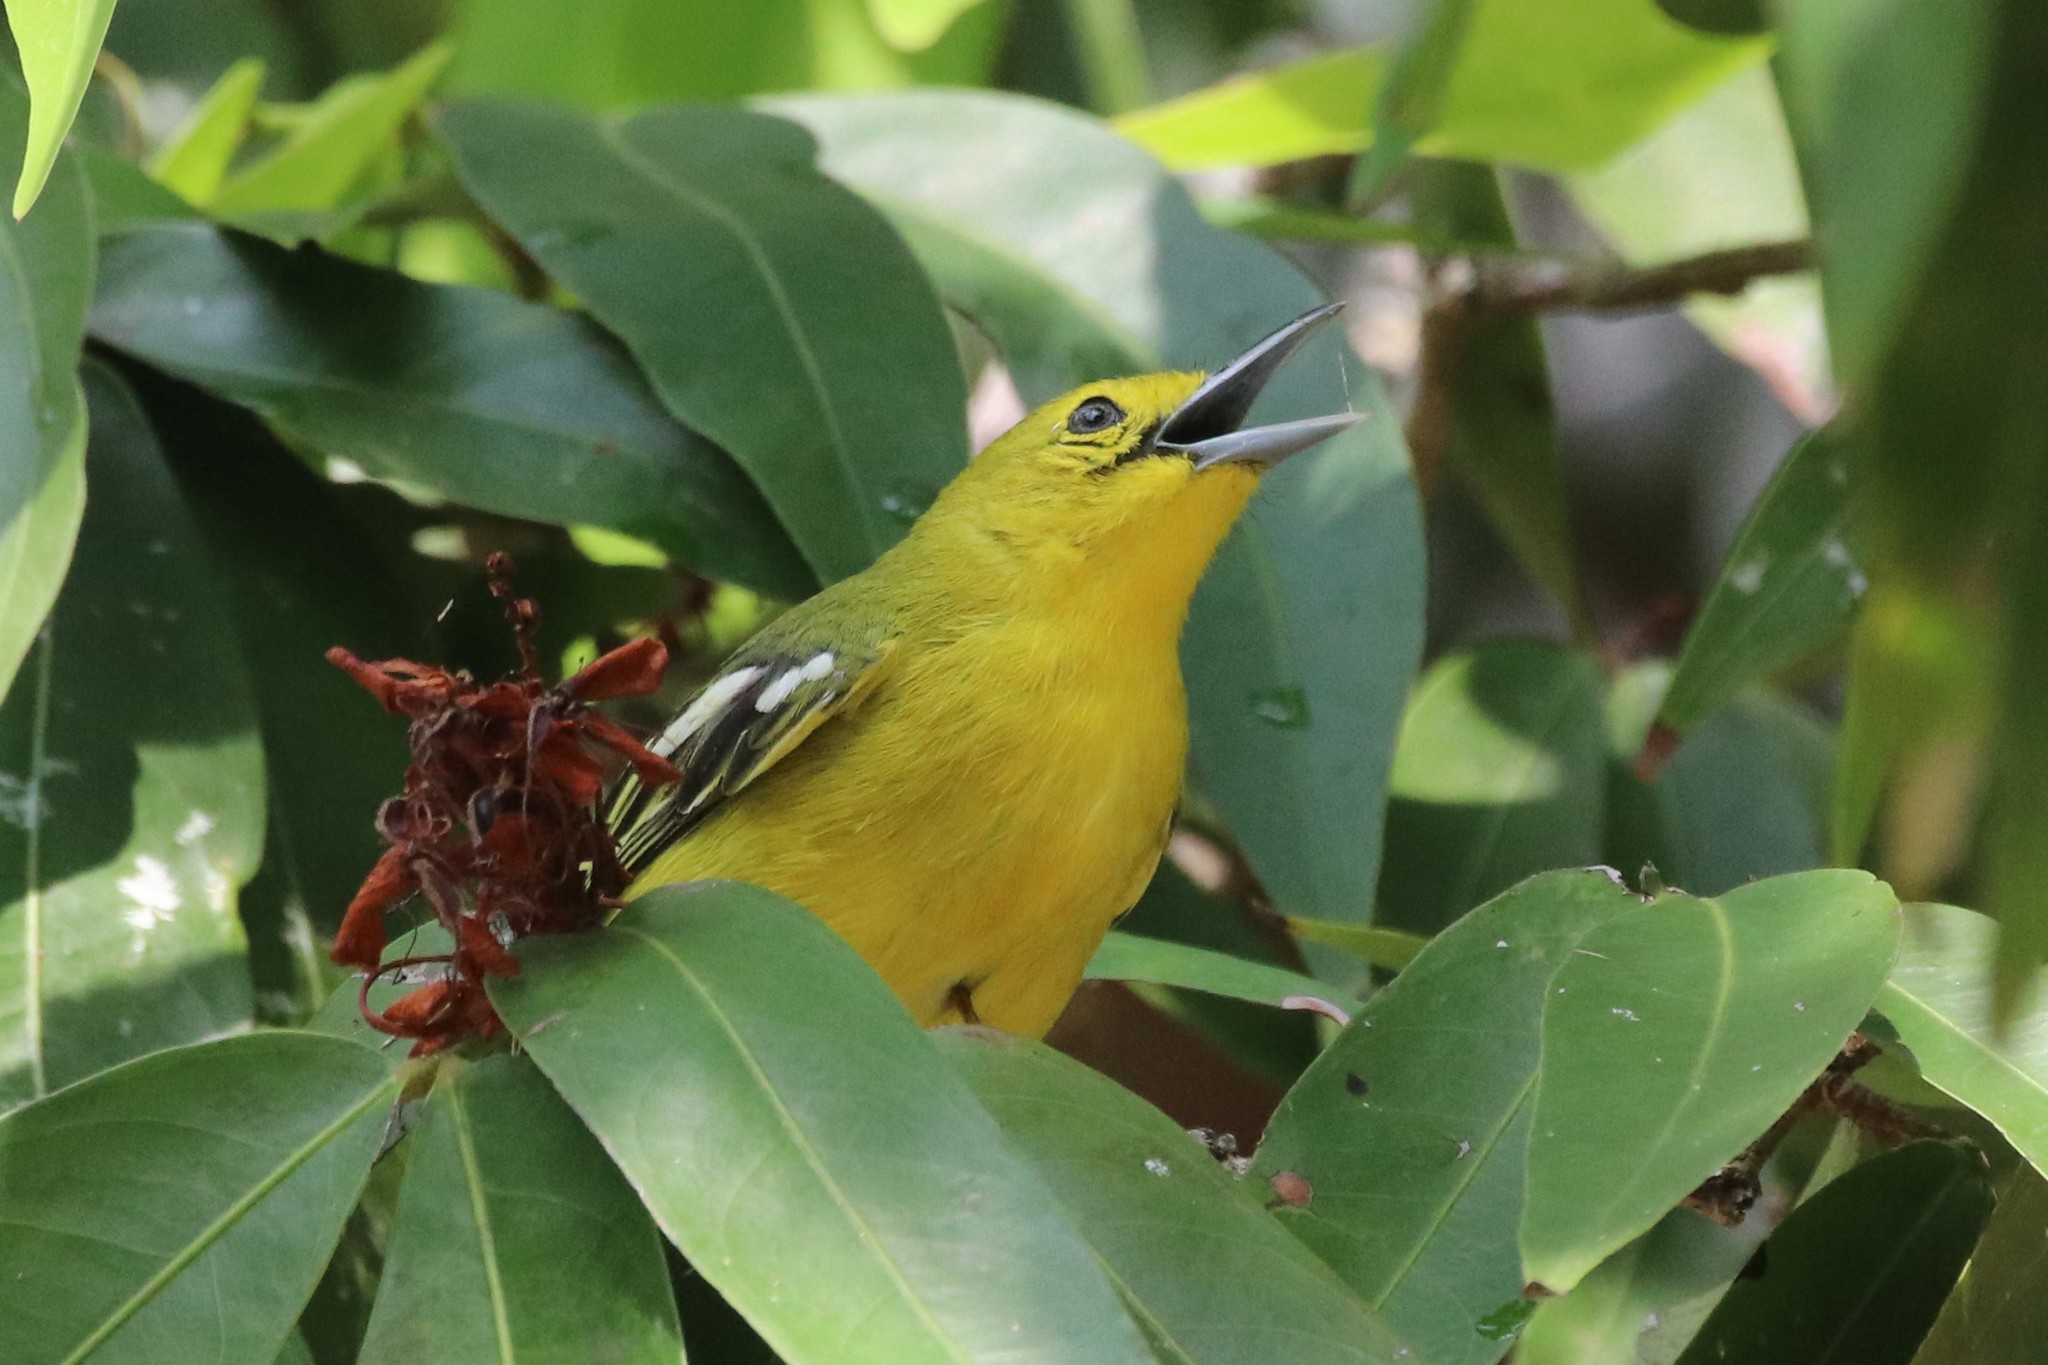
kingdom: Animalia
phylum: Chordata
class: Aves
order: Passeriformes
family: Aegithinidae
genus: Aegithina
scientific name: Aegithina tiphia
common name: Common iora
